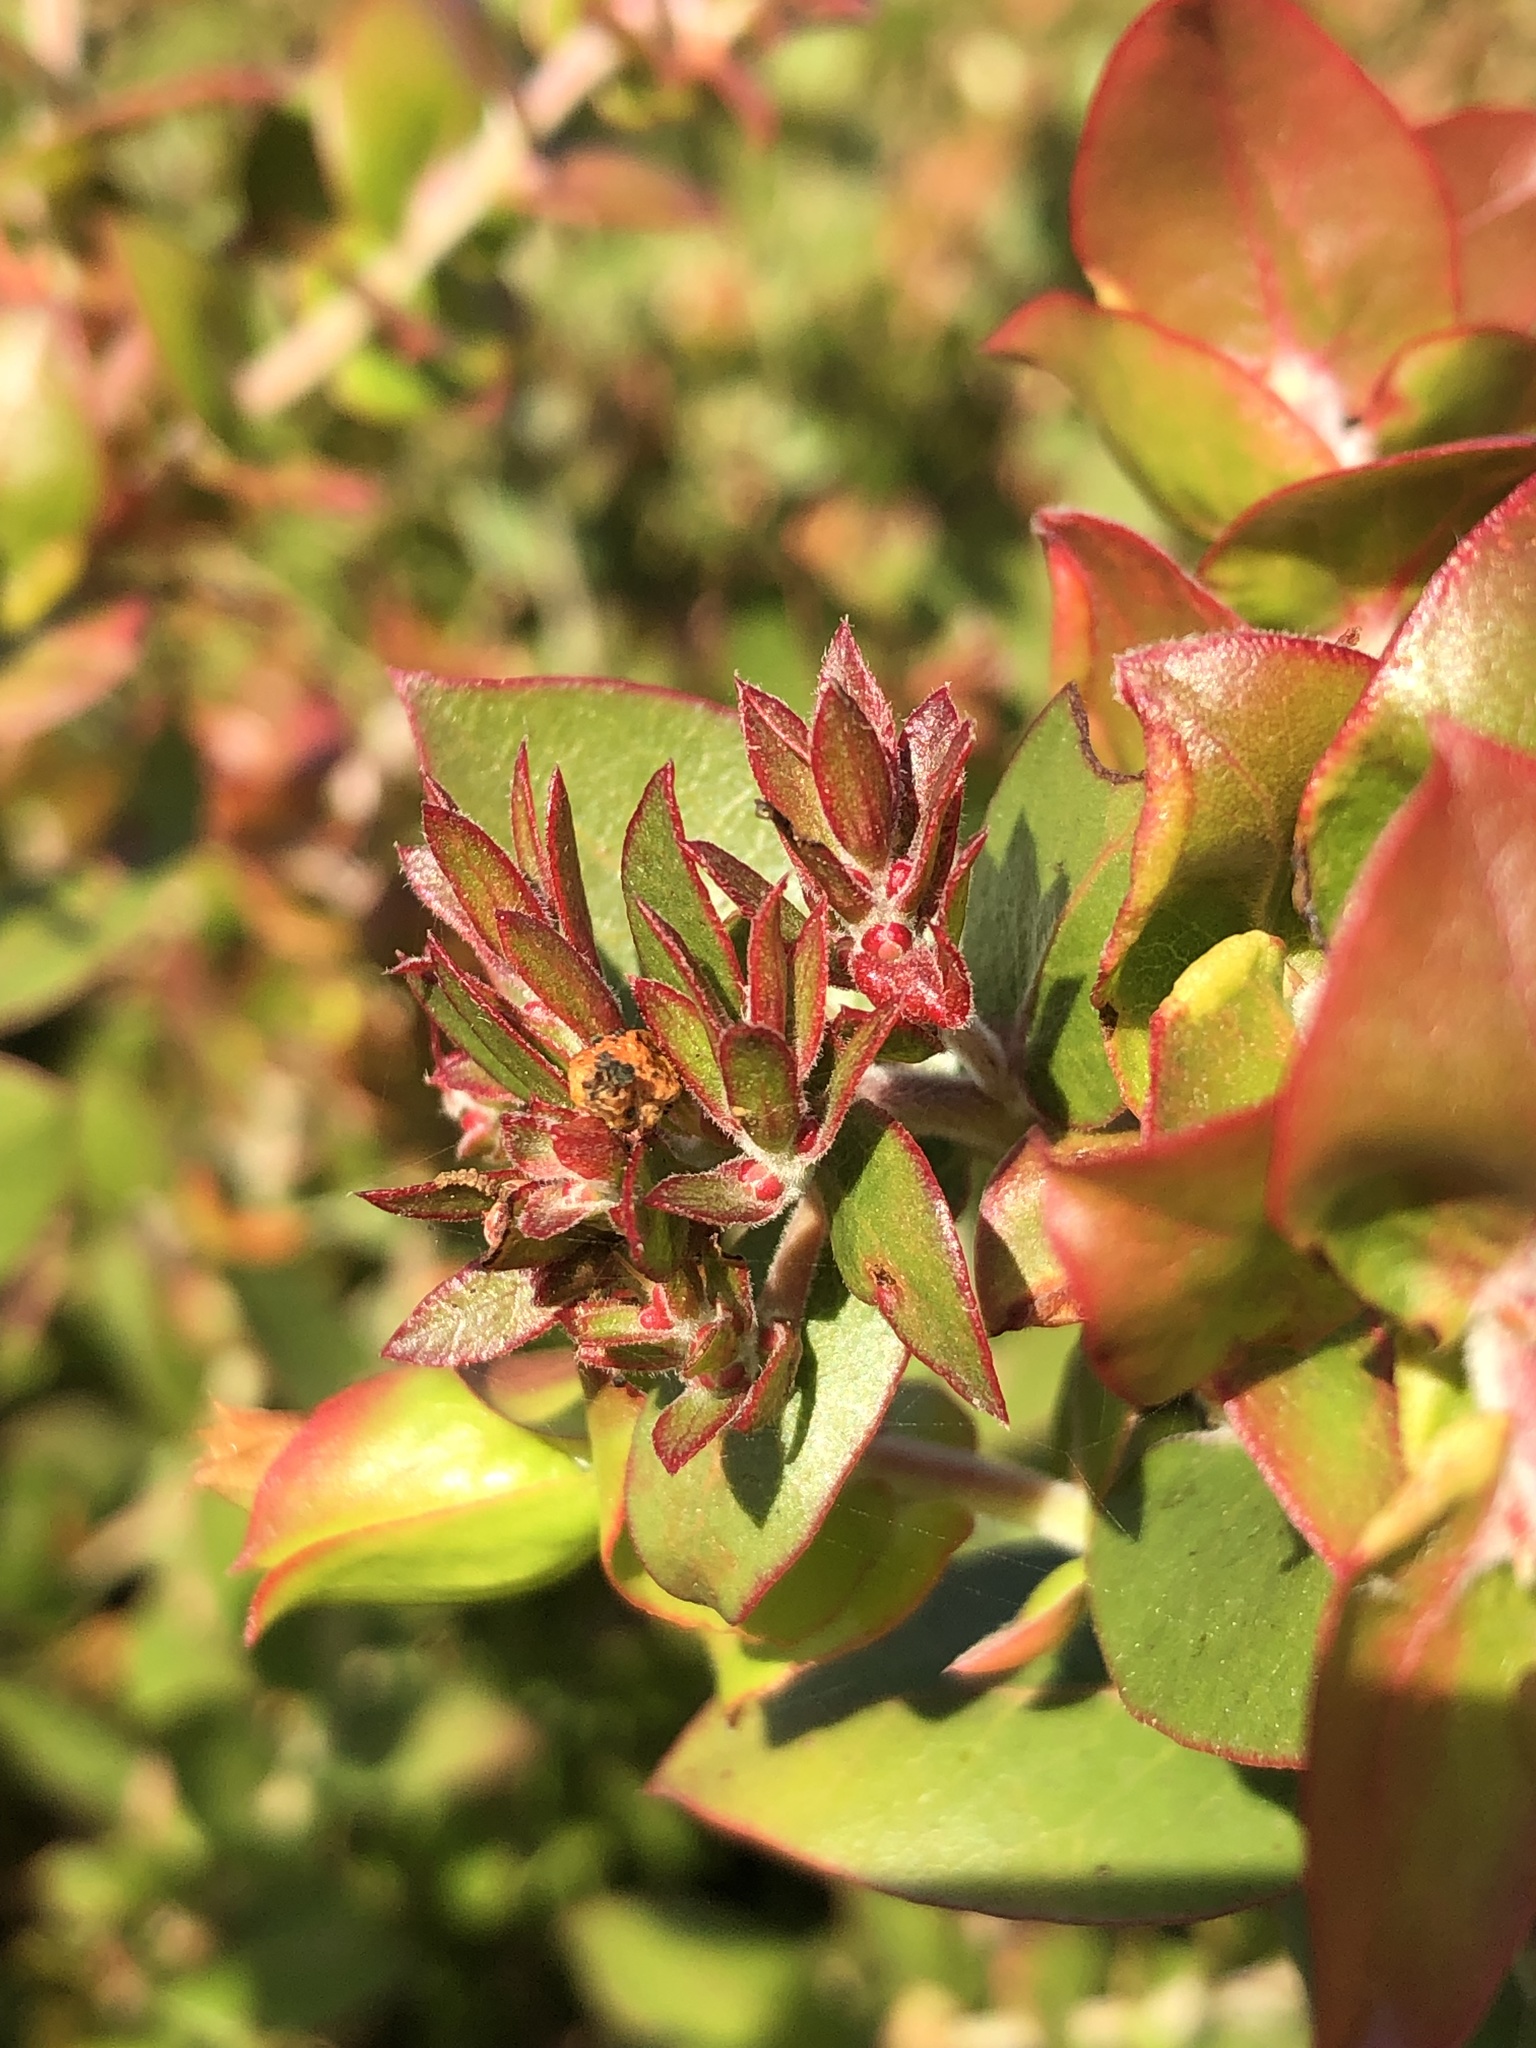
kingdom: Plantae
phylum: Tracheophyta
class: Magnoliopsida
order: Ericales
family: Ericaceae
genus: Arctostaphylos
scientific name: Arctostaphylos osoensis
